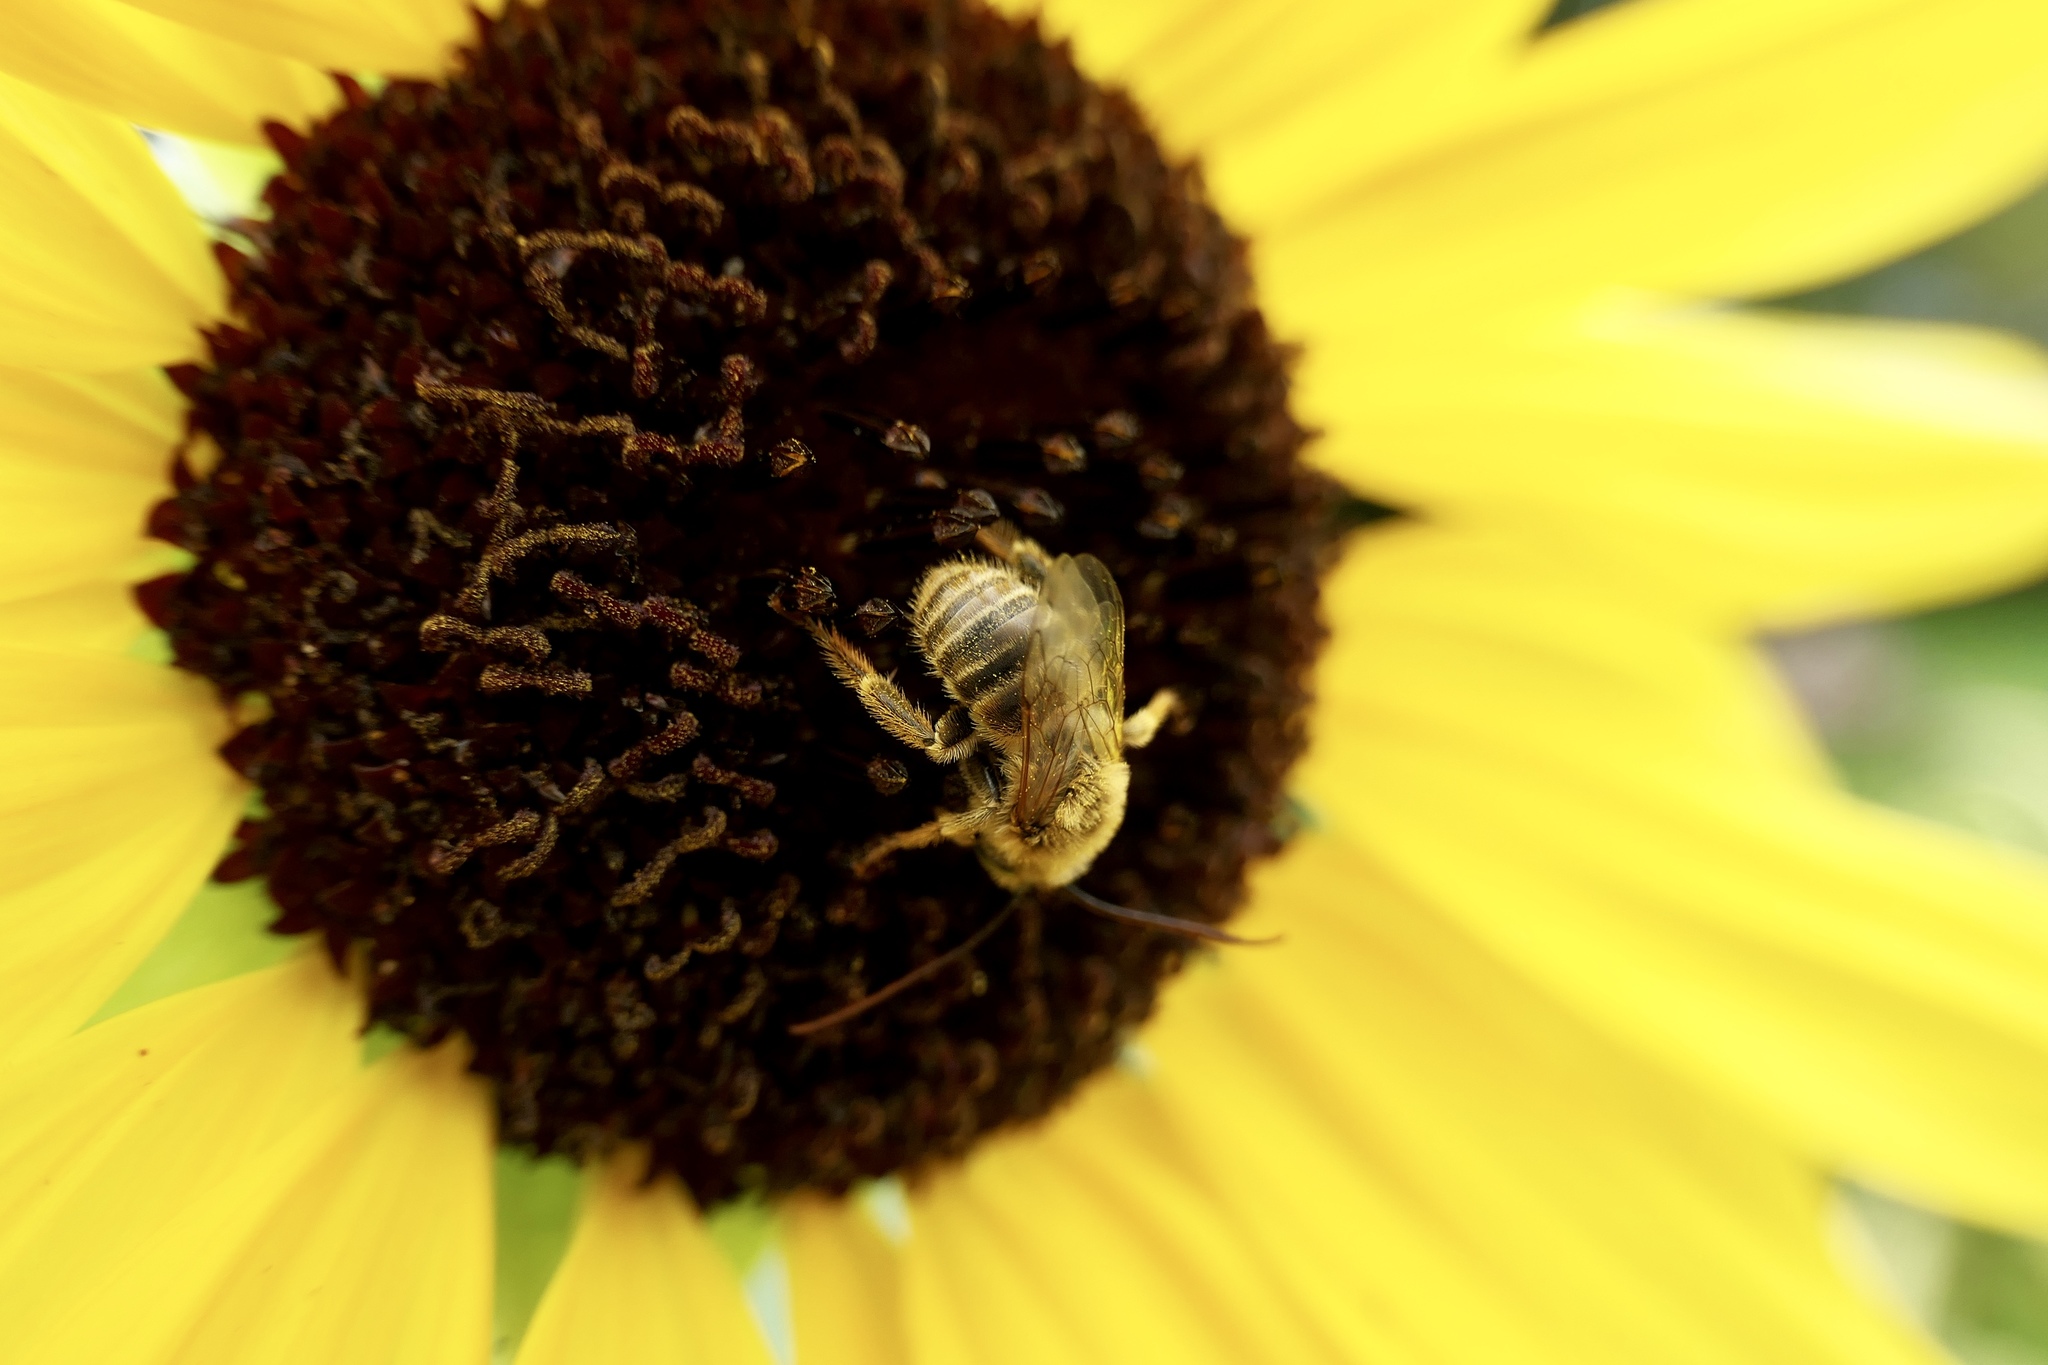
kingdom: Animalia
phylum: Arthropoda
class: Insecta
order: Hymenoptera
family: Apidae
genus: Melissodes
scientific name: Melissodes trinodis
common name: Dark-veined longhorn
